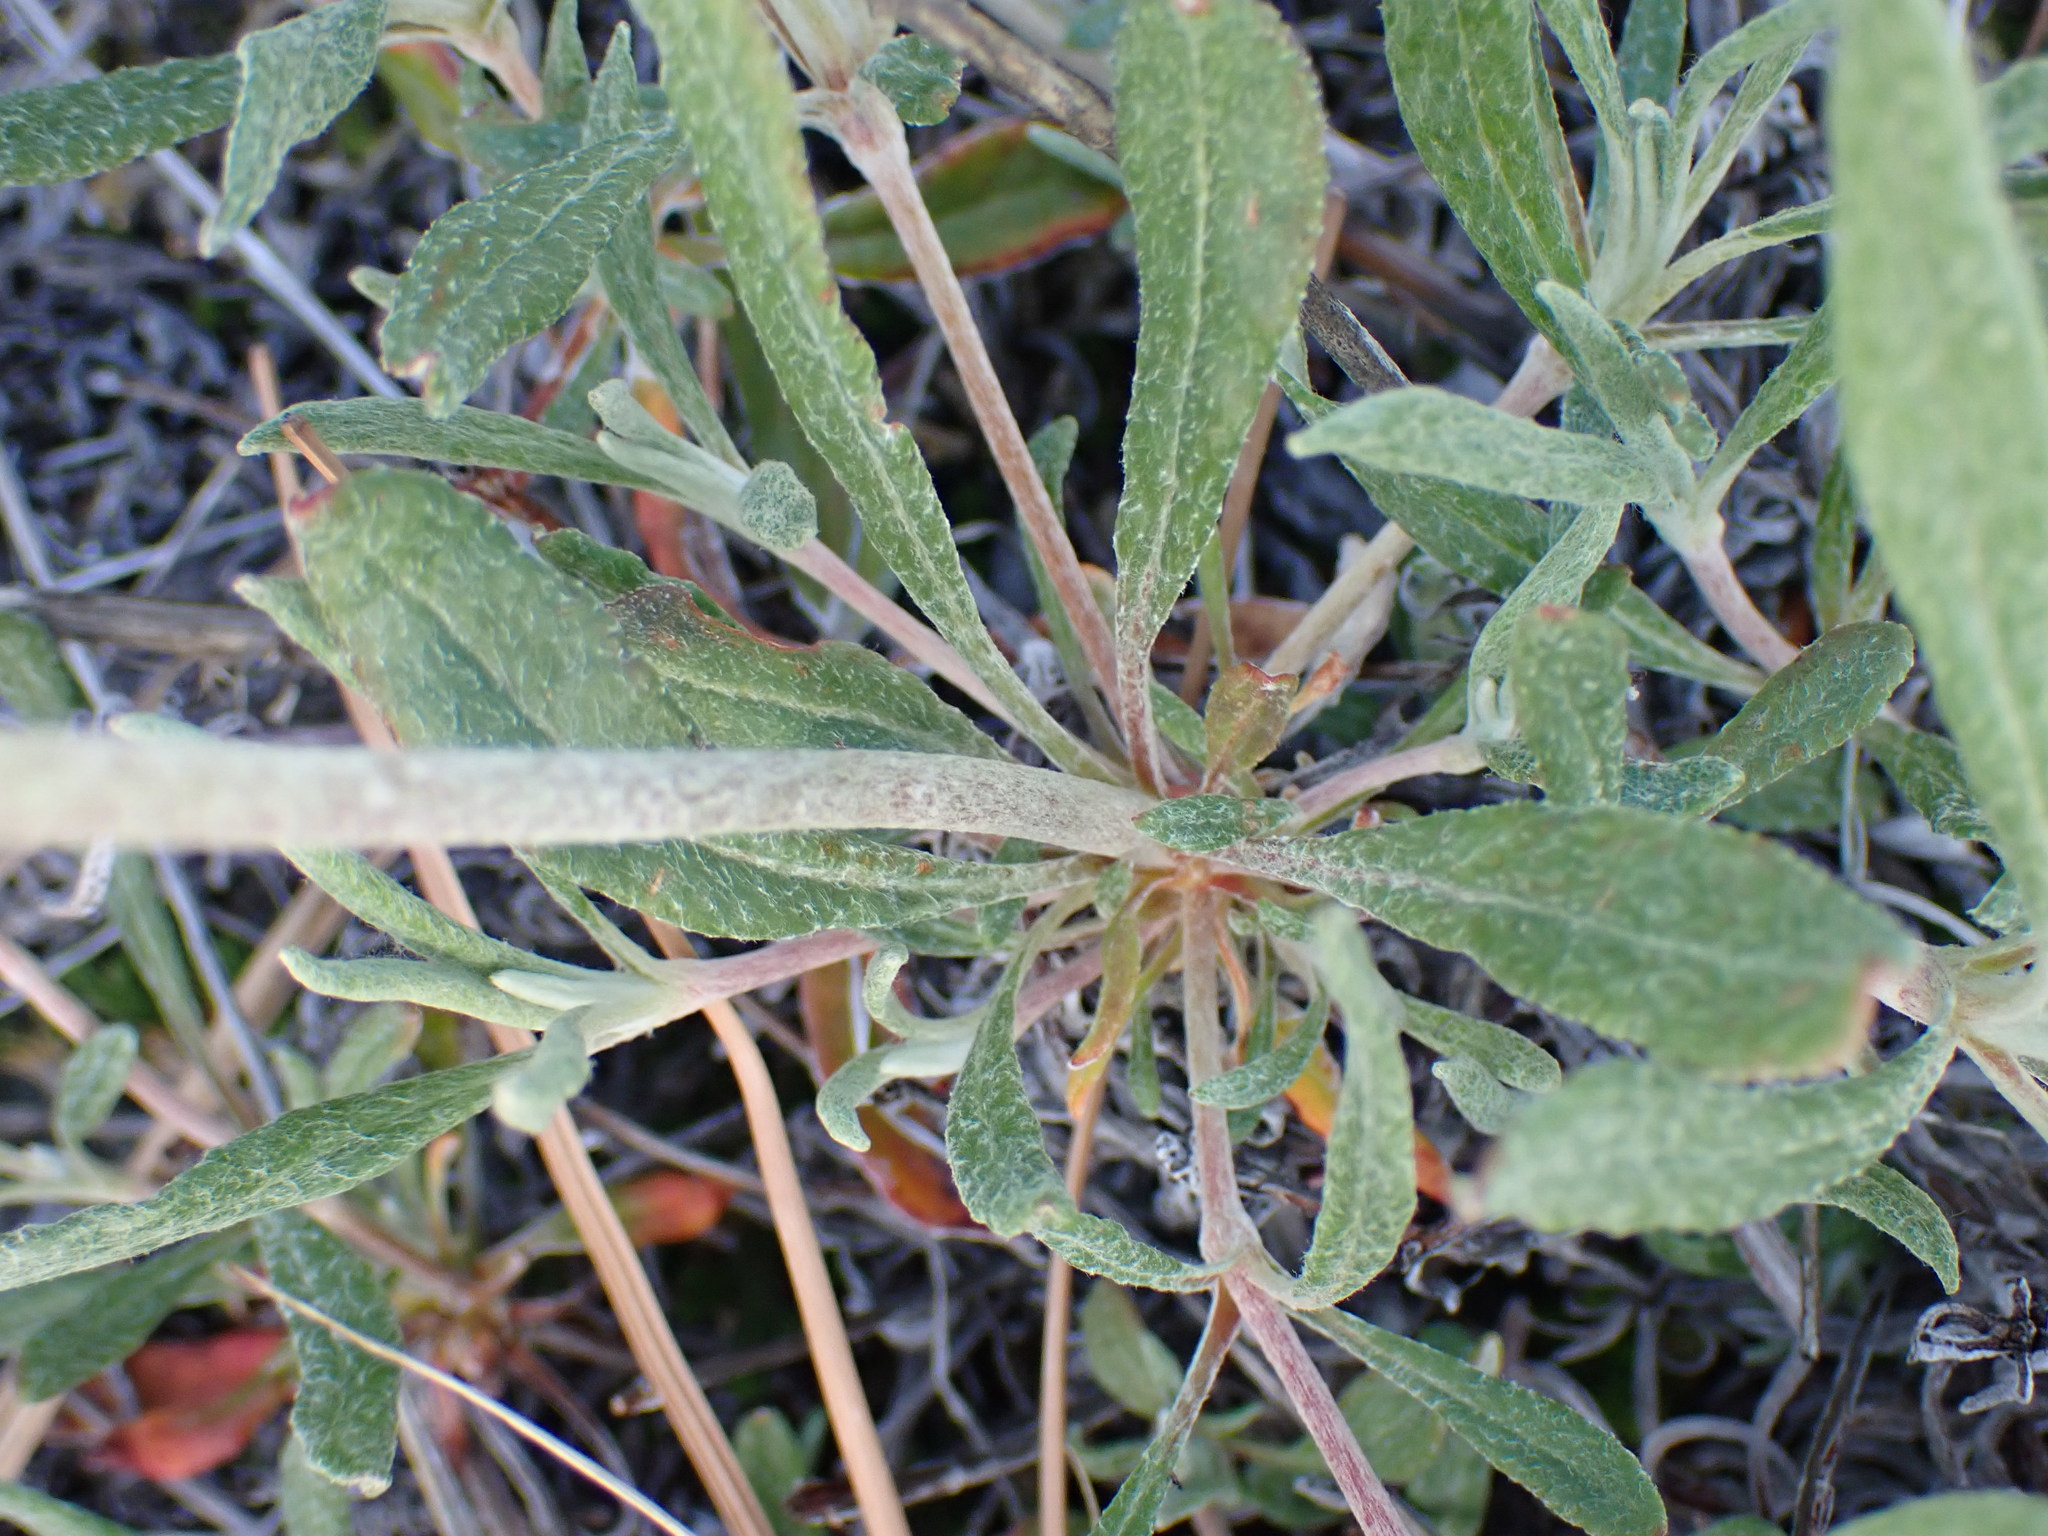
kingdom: Plantae
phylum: Tracheophyta
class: Magnoliopsida
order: Caryophyllales
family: Polygonaceae
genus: Eriogonum
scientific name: Eriogonum heracleoides
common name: Wyeth's buckwheat
